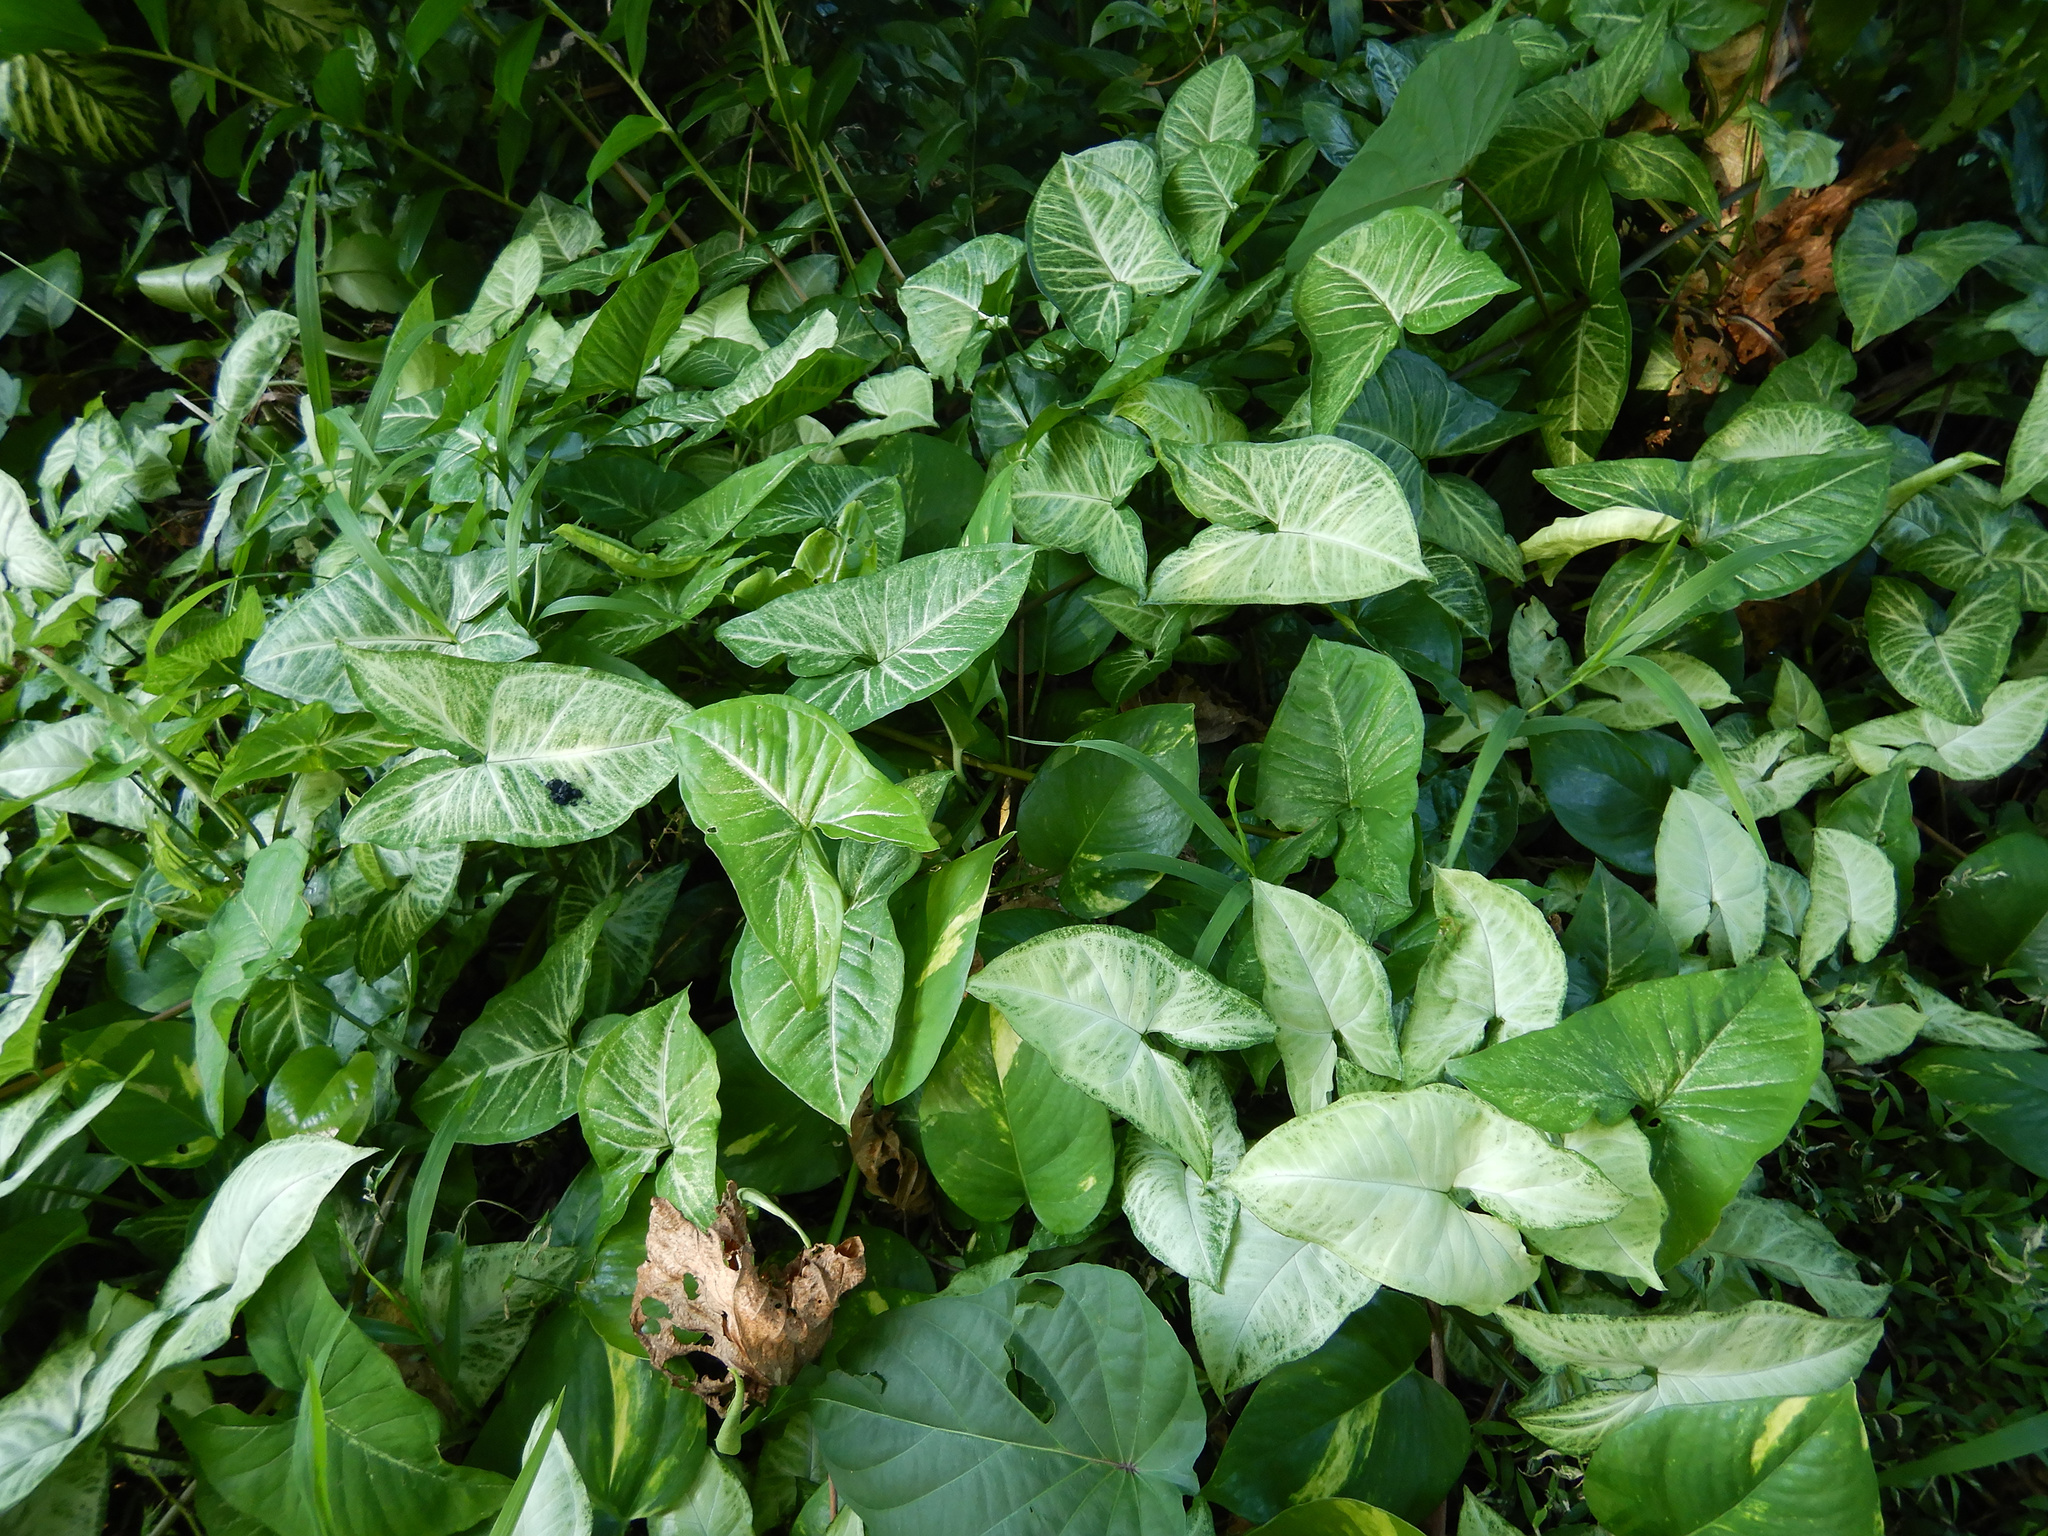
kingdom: Plantae
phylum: Tracheophyta
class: Liliopsida
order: Alismatales
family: Araceae
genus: Syngonium
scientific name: Syngonium podophyllum
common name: American evergreen
